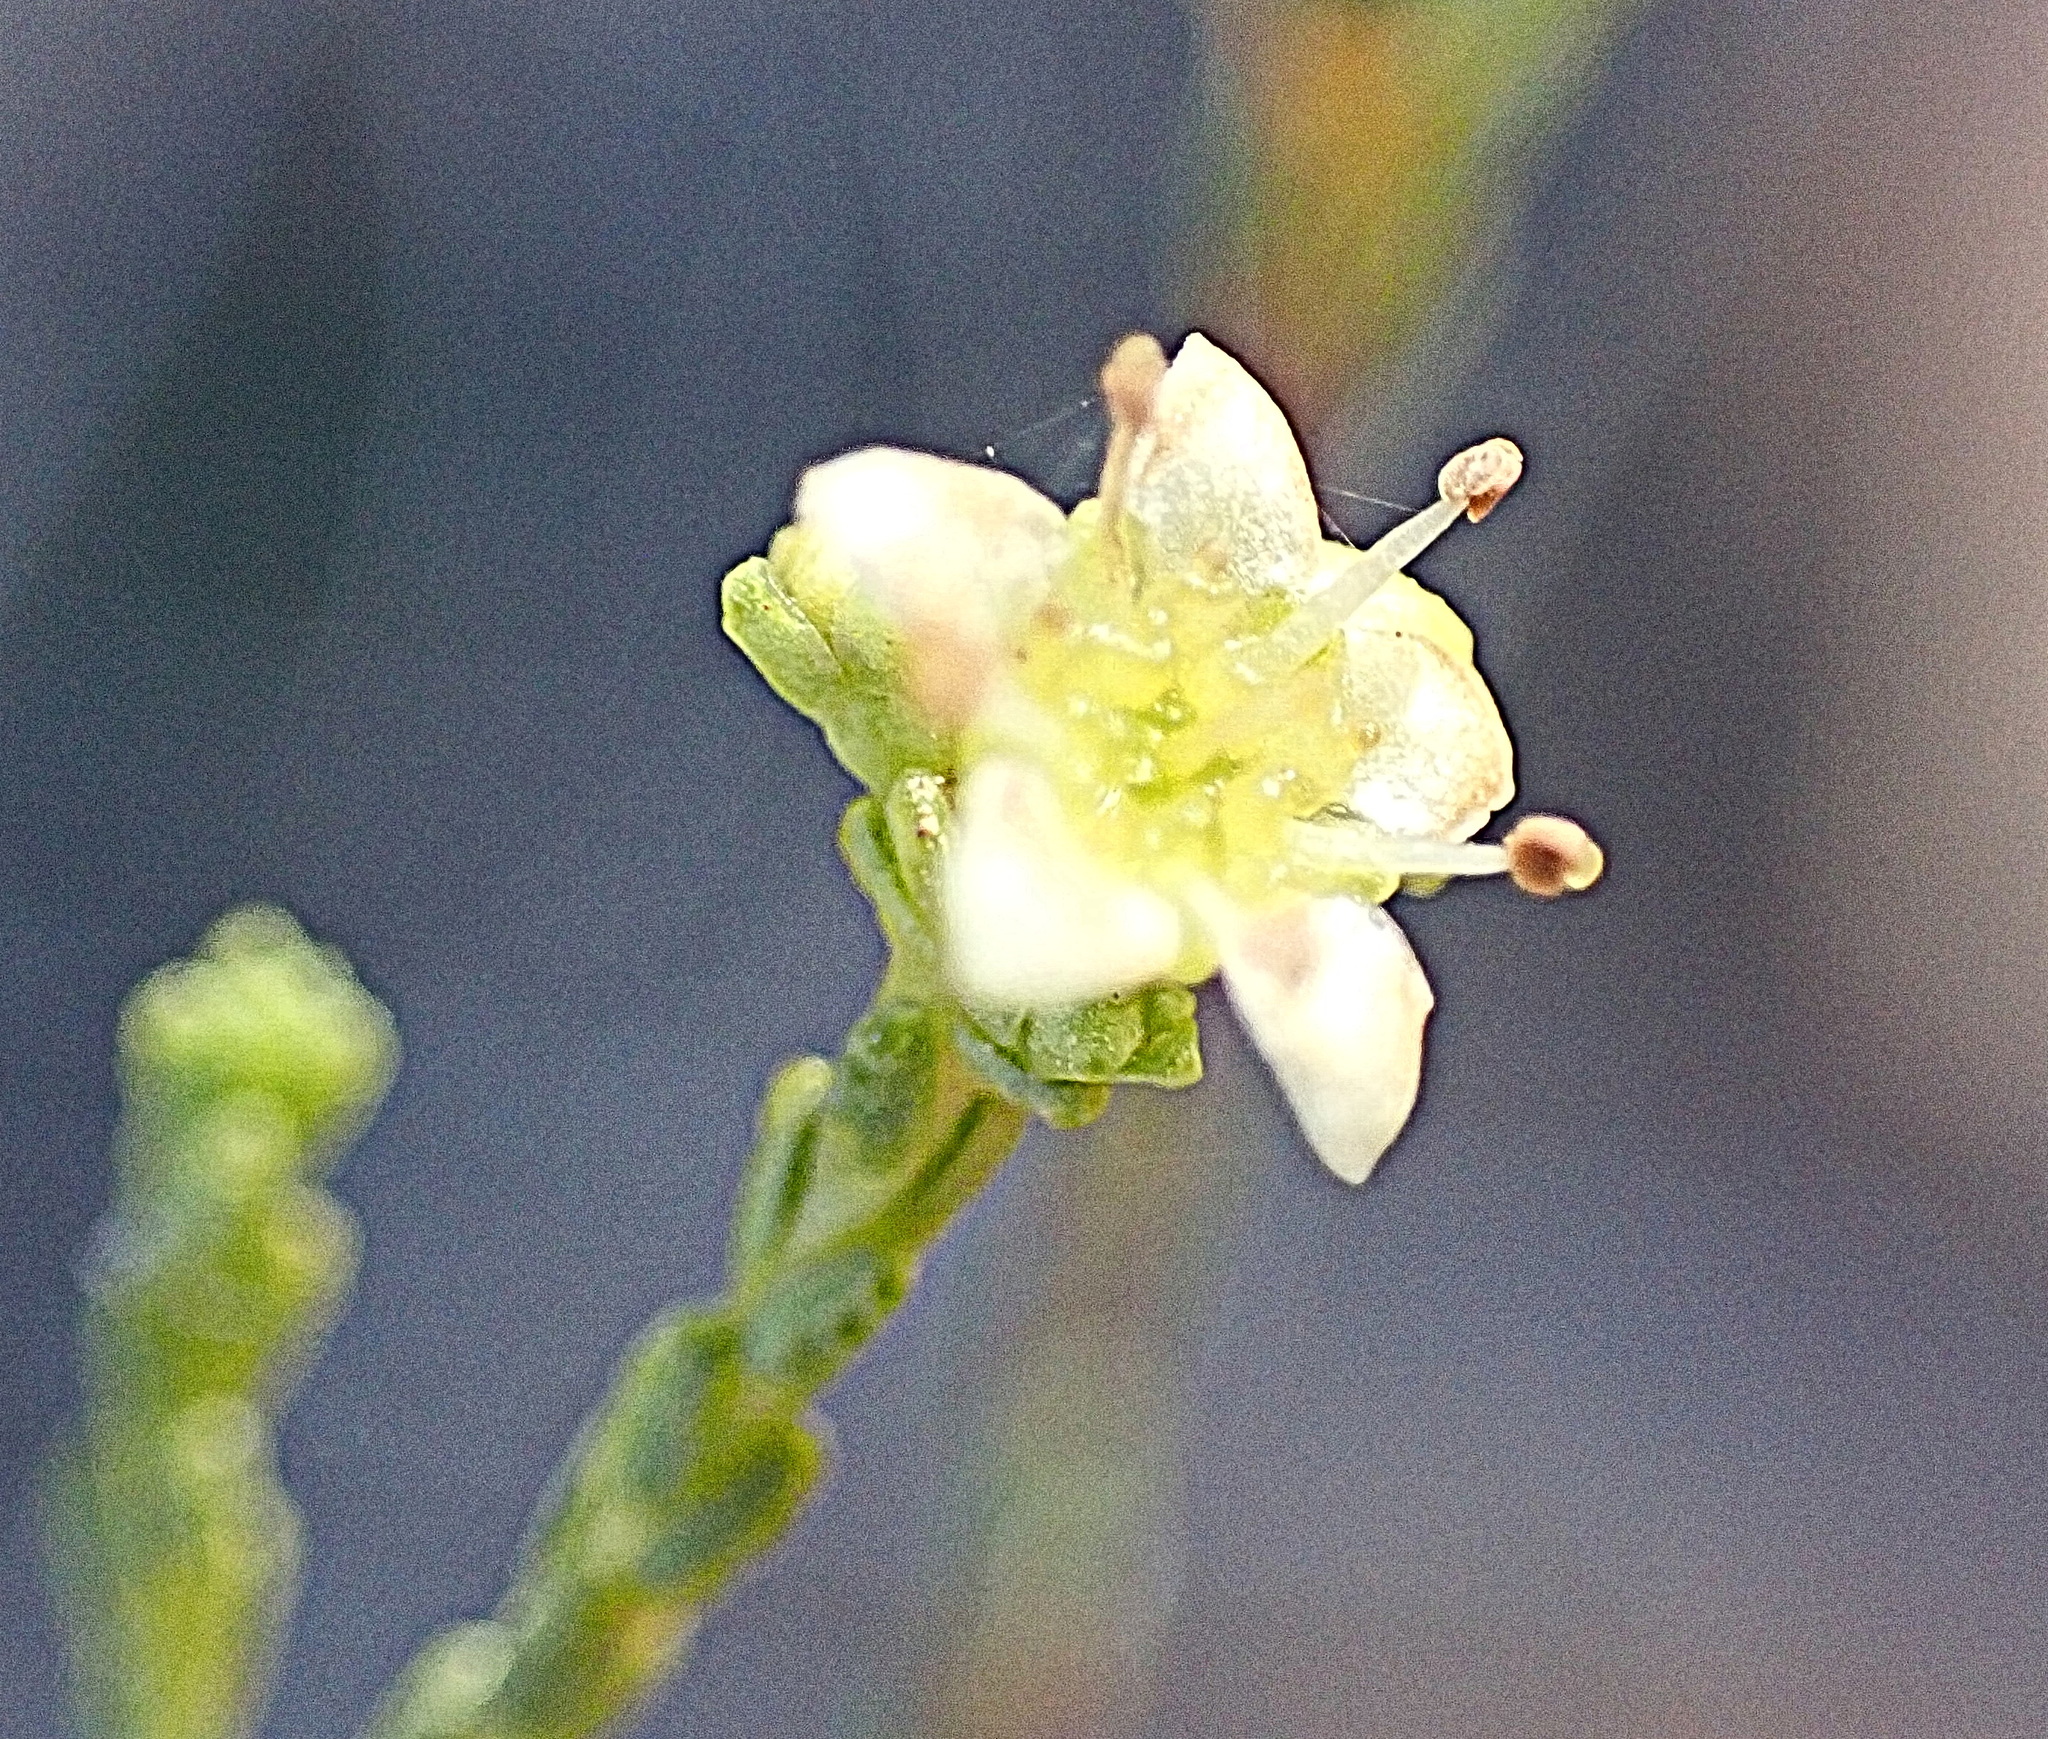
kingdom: Plantae
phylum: Tracheophyta
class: Magnoliopsida
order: Sapindales
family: Rutaceae
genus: Diosma
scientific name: Diosma prama
